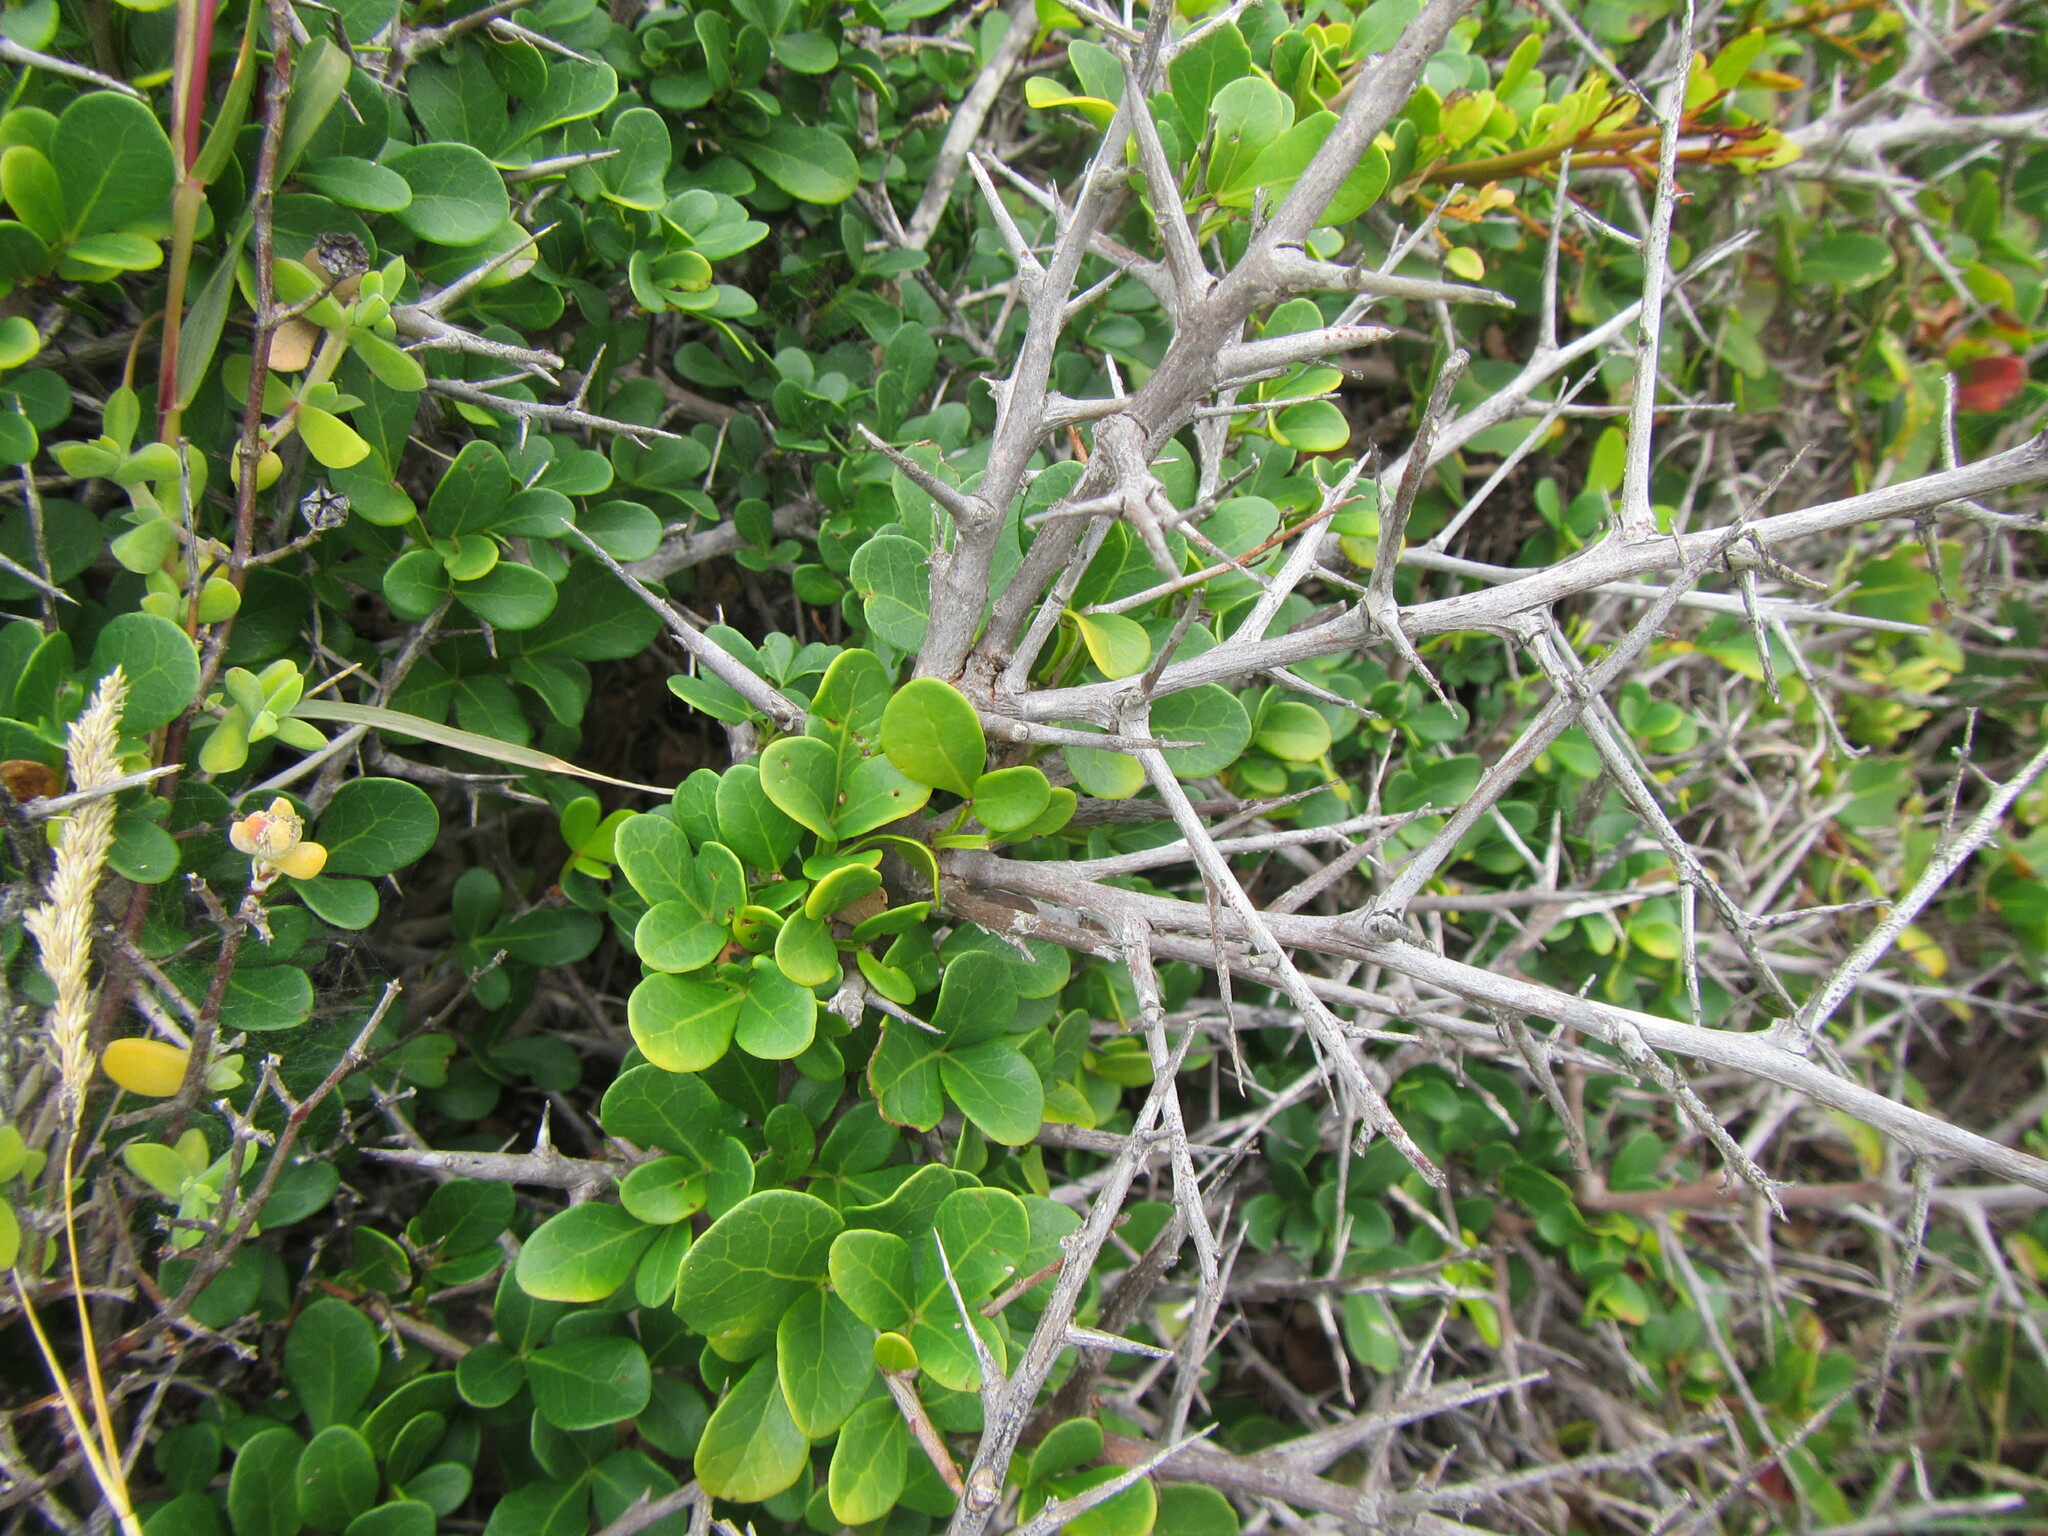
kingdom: Plantae
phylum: Tracheophyta
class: Magnoliopsida
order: Sapindales
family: Anacardiaceae
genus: Searsia
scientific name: Searsia pterota
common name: Winged currant
